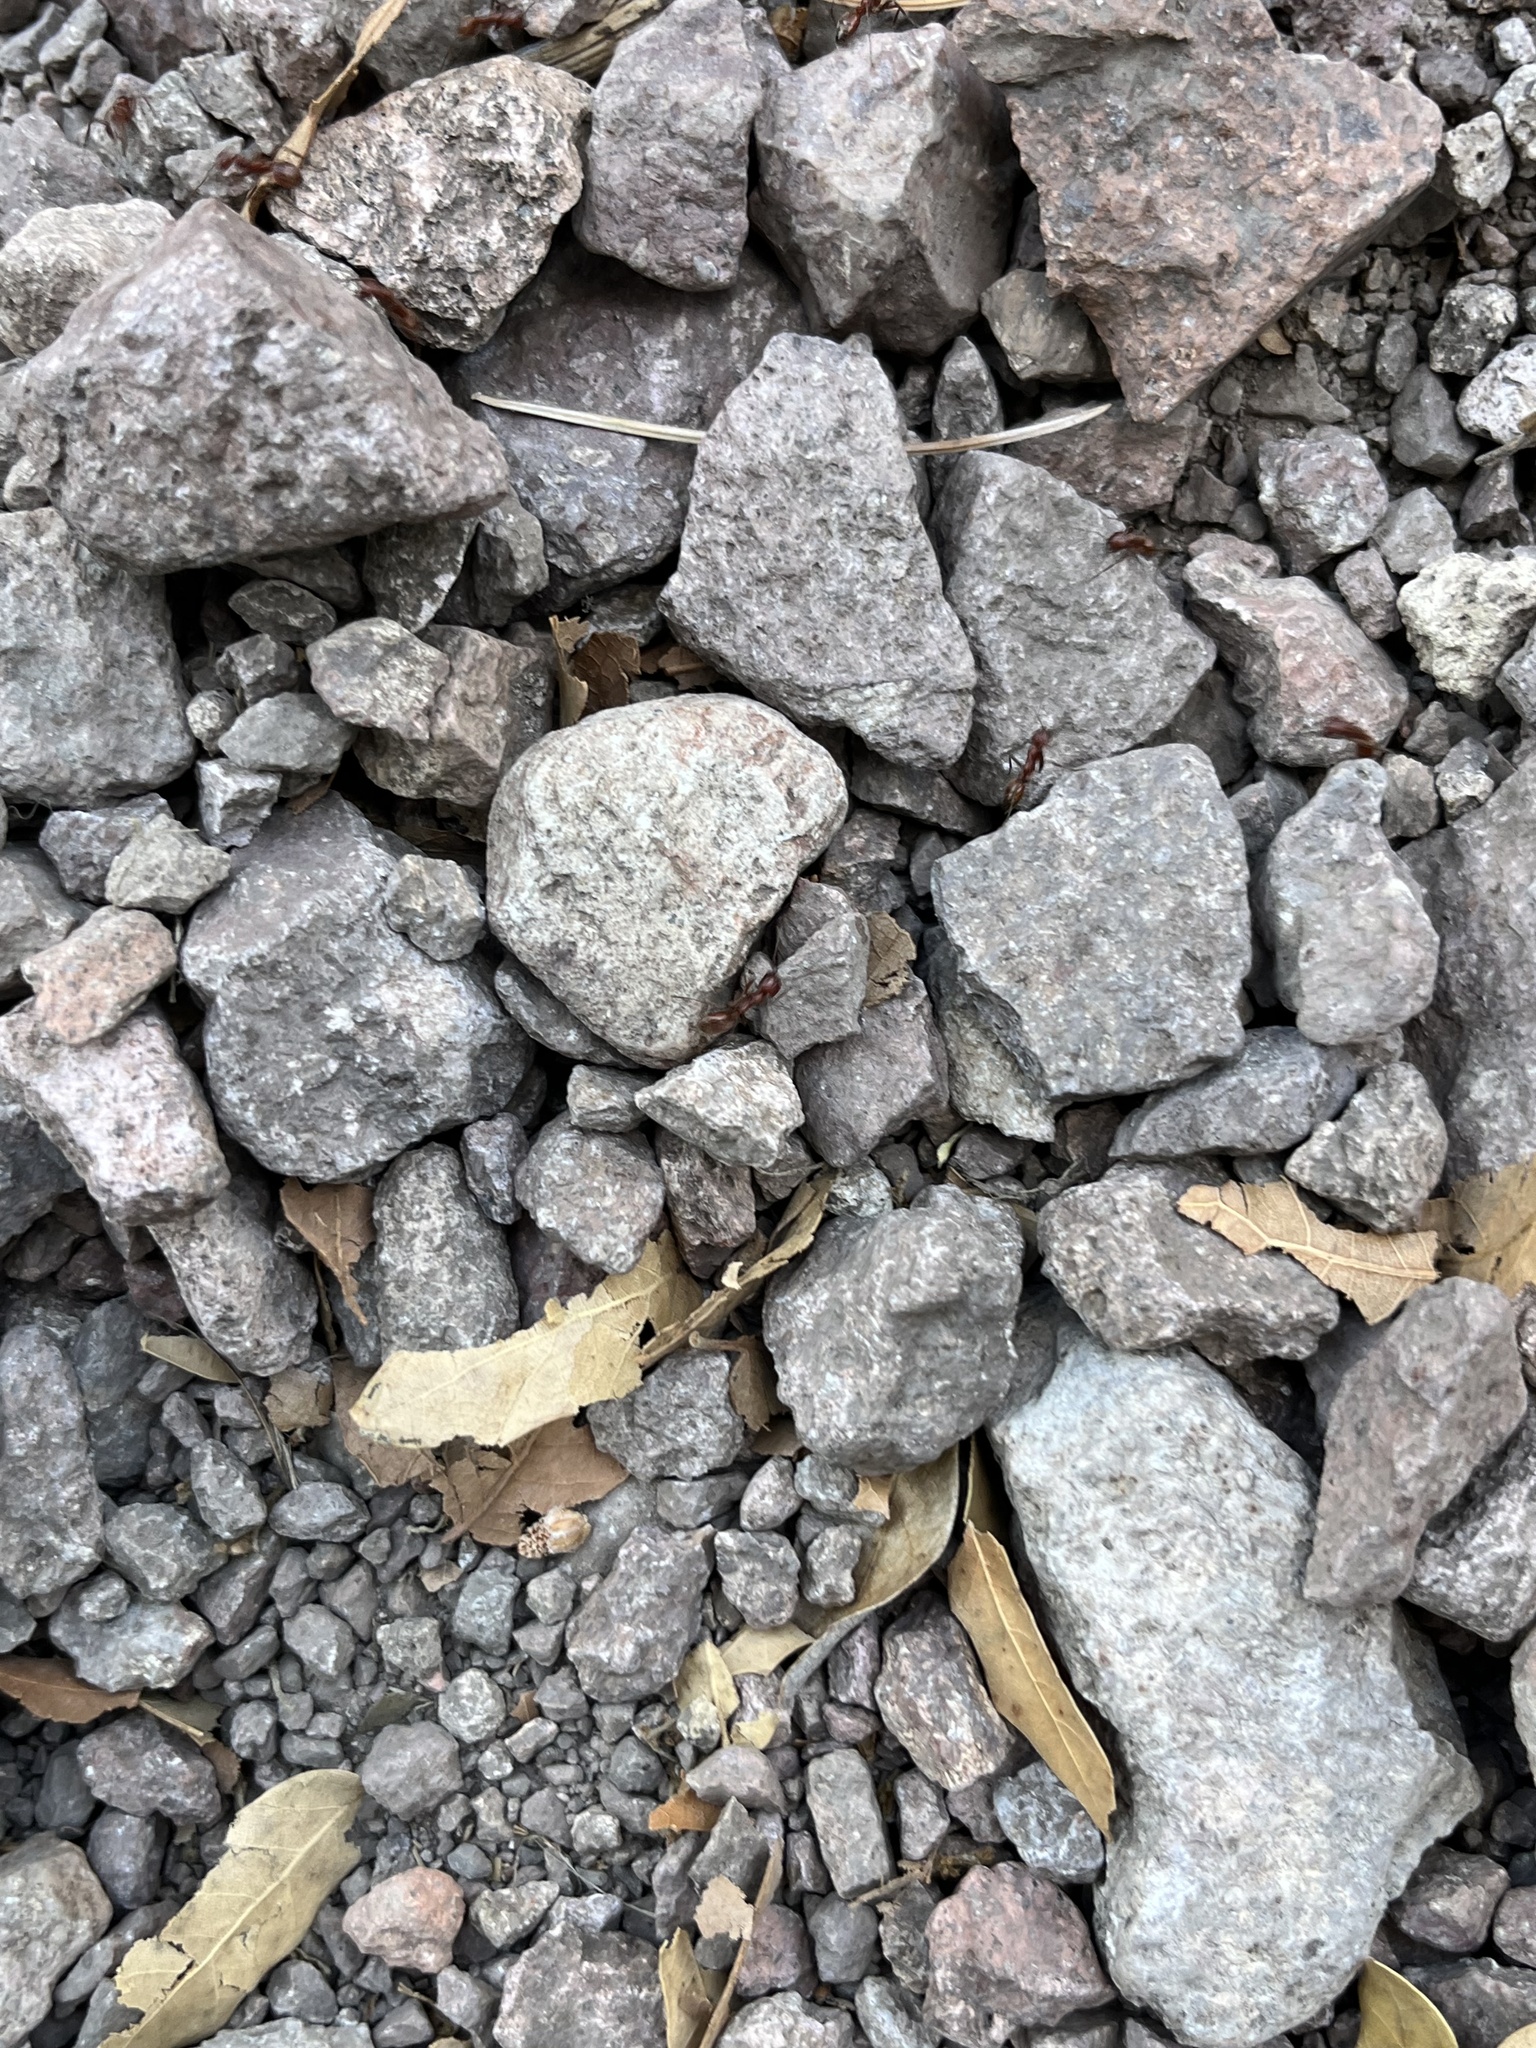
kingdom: Animalia
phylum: Arthropoda
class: Insecta
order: Hymenoptera
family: Formicidae
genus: Polyergus
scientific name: Polyergus topoffi
